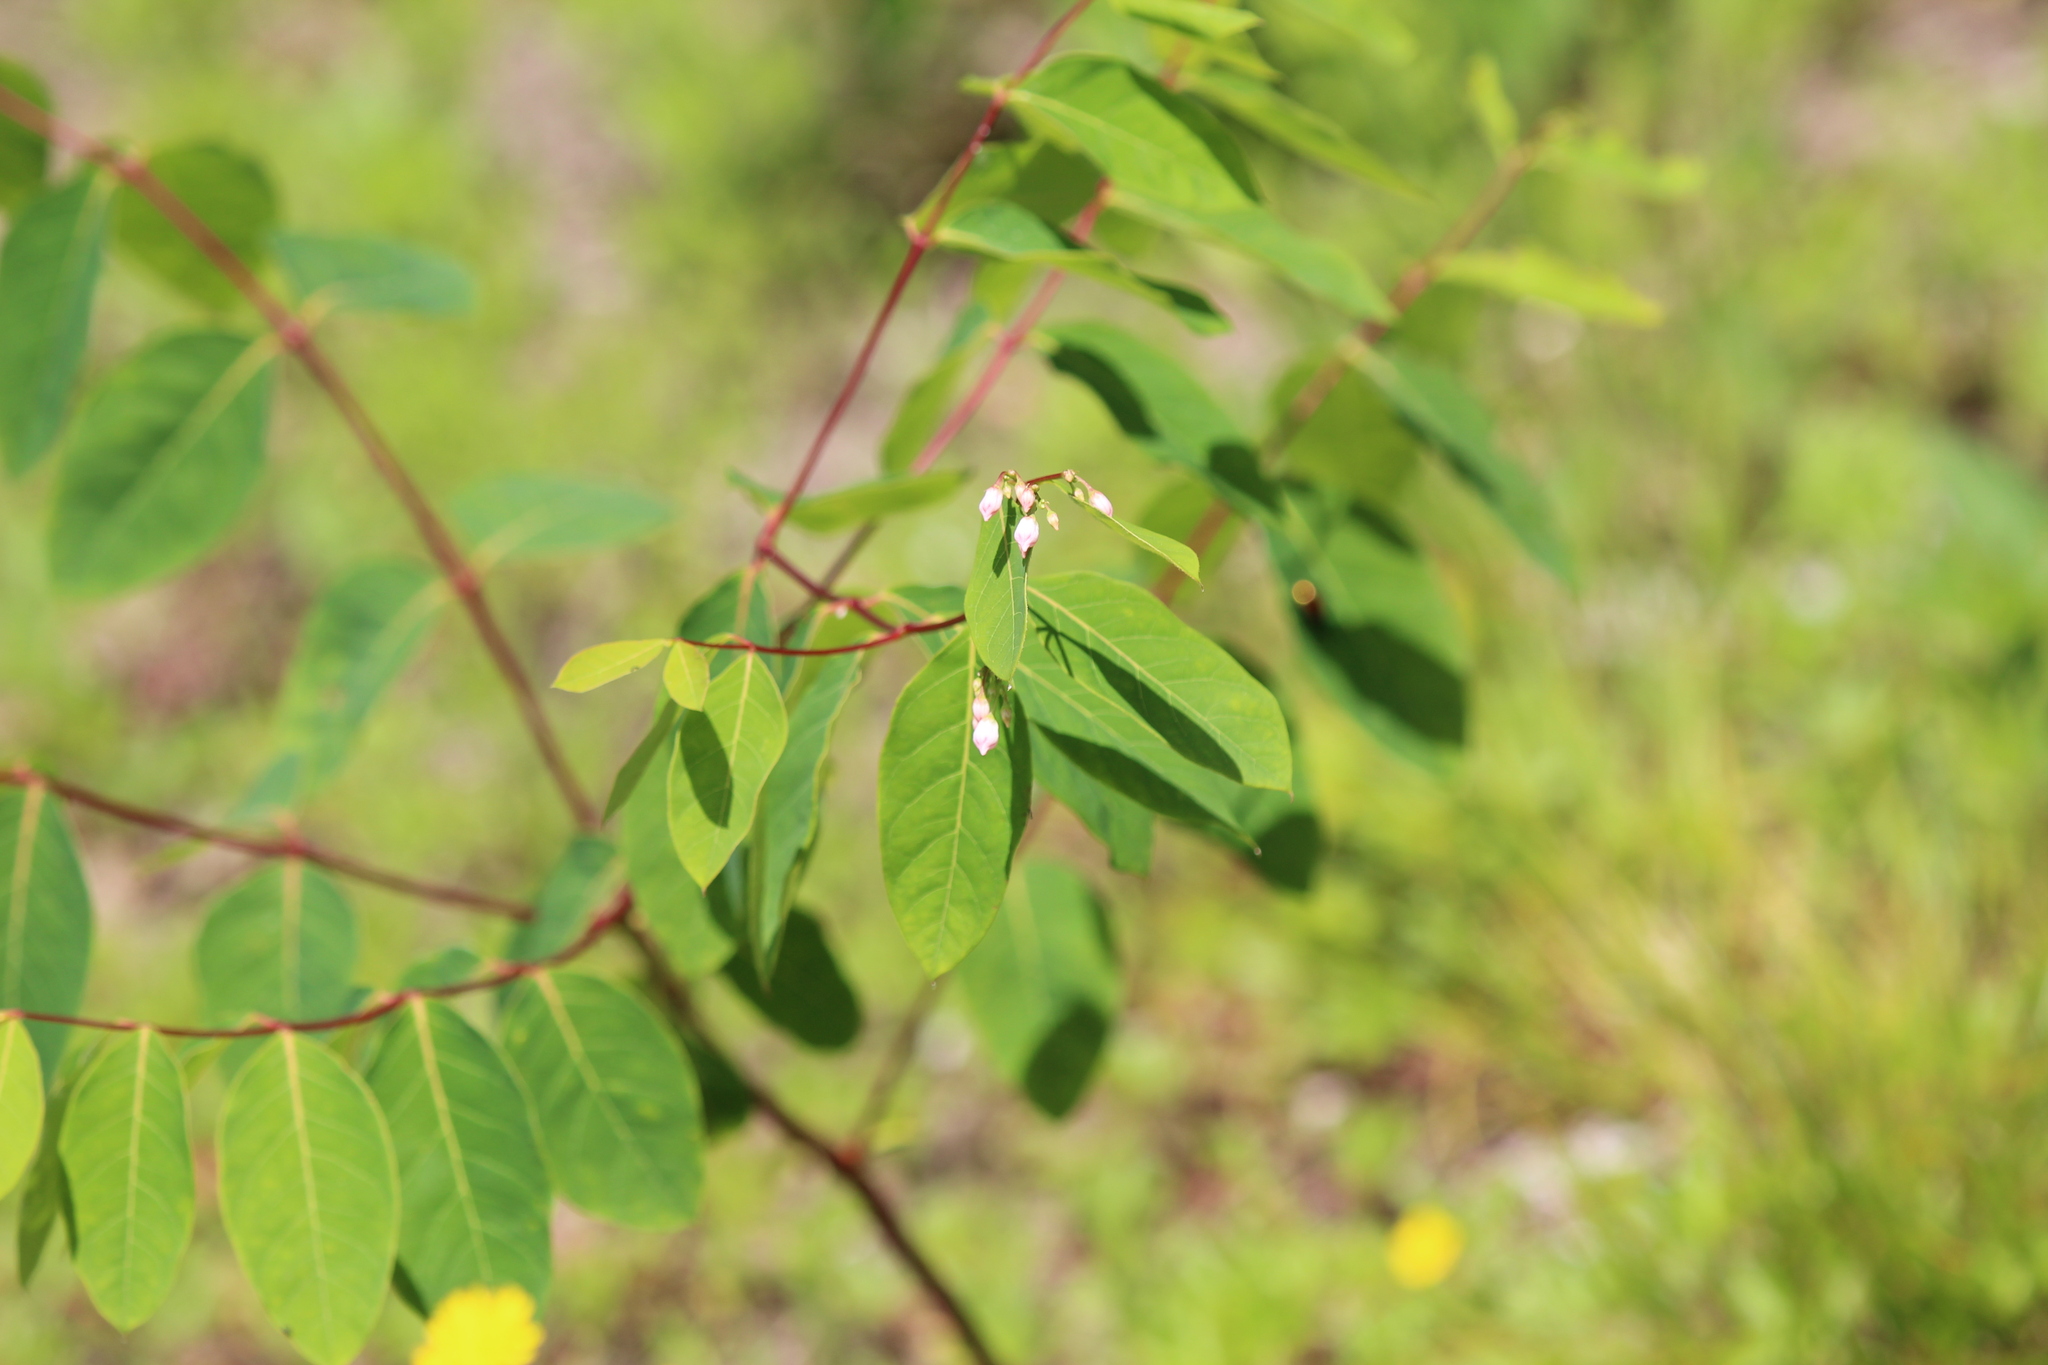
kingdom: Plantae
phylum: Tracheophyta
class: Magnoliopsida
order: Gentianales
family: Apocynaceae
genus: Apocynum
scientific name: Apocynum androsaemifolium
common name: Spreading dogbane
